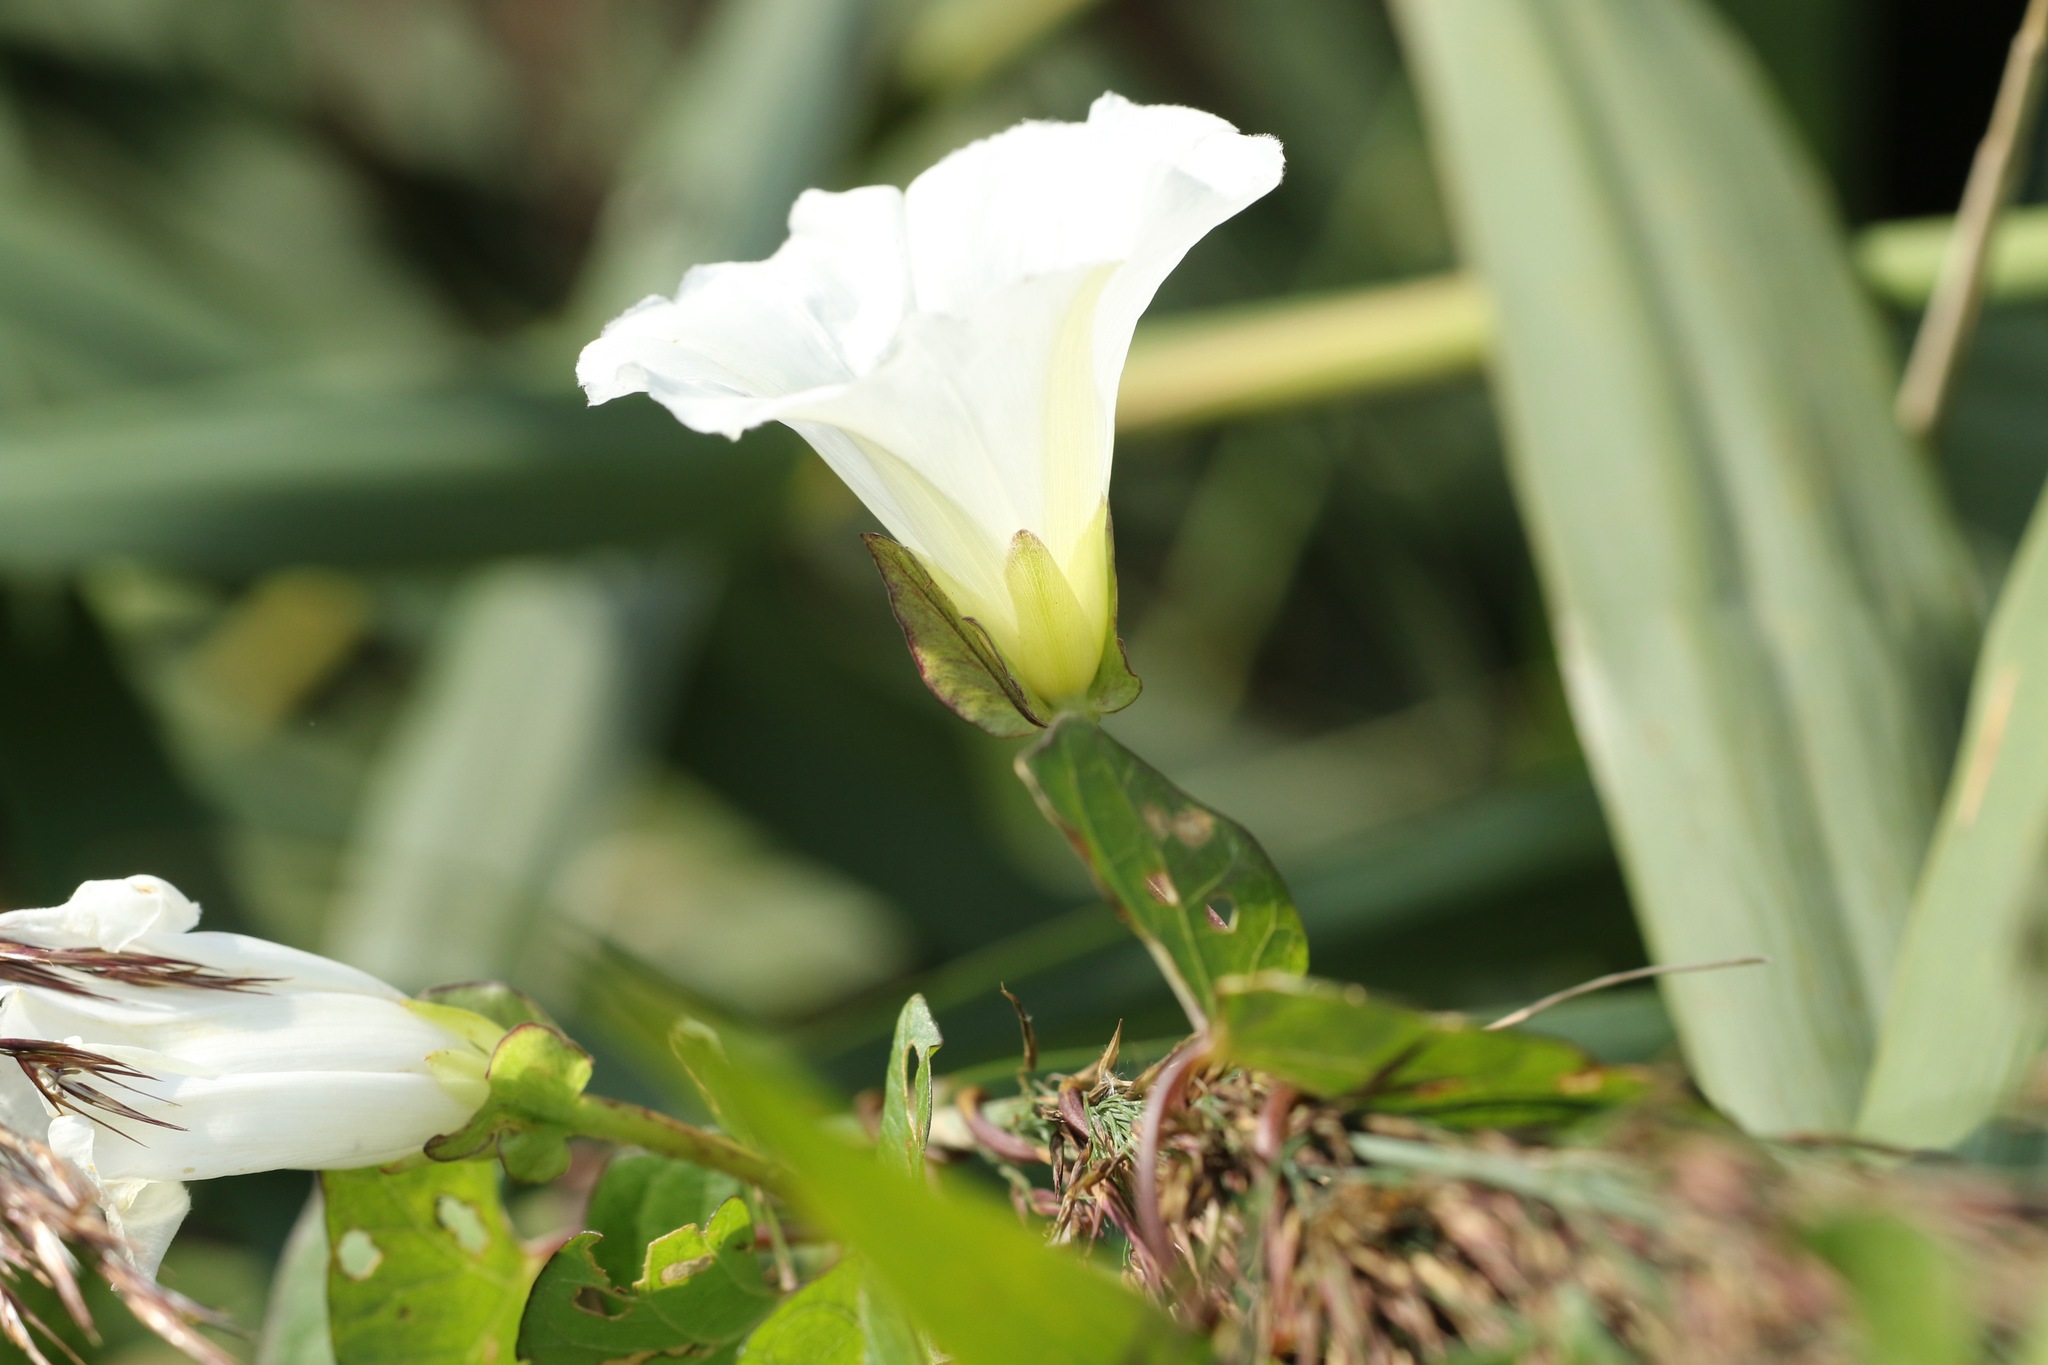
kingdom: Plantae
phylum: Tracheophyta
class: Magnoliopsida
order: Solanales
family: Convolvulaceae
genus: Calystegia
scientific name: Calystegia sepium
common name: Hedge bindweed
